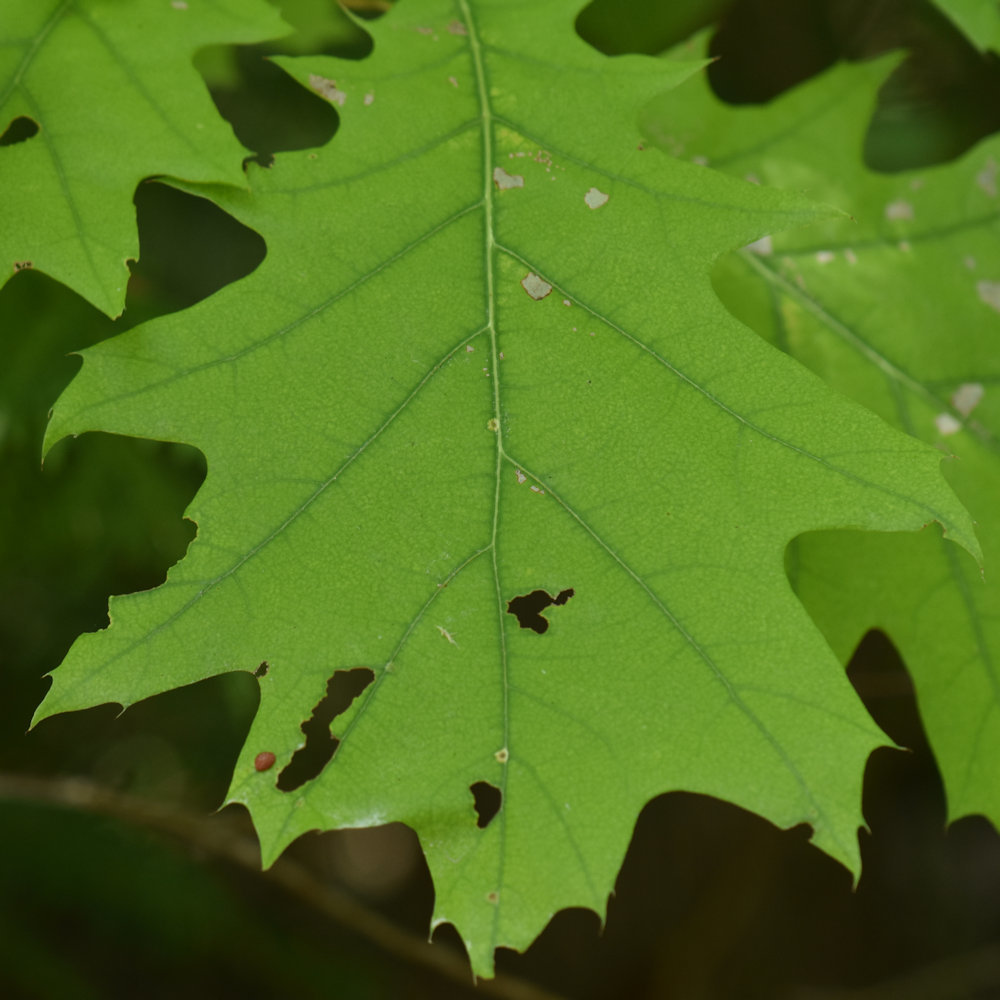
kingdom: Animalia
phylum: Arthropoda
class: Insecta
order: Diptera
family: Cecidomyiidae
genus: Polystepha
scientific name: Polystepha pilulae
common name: Oak leaf gall midge
